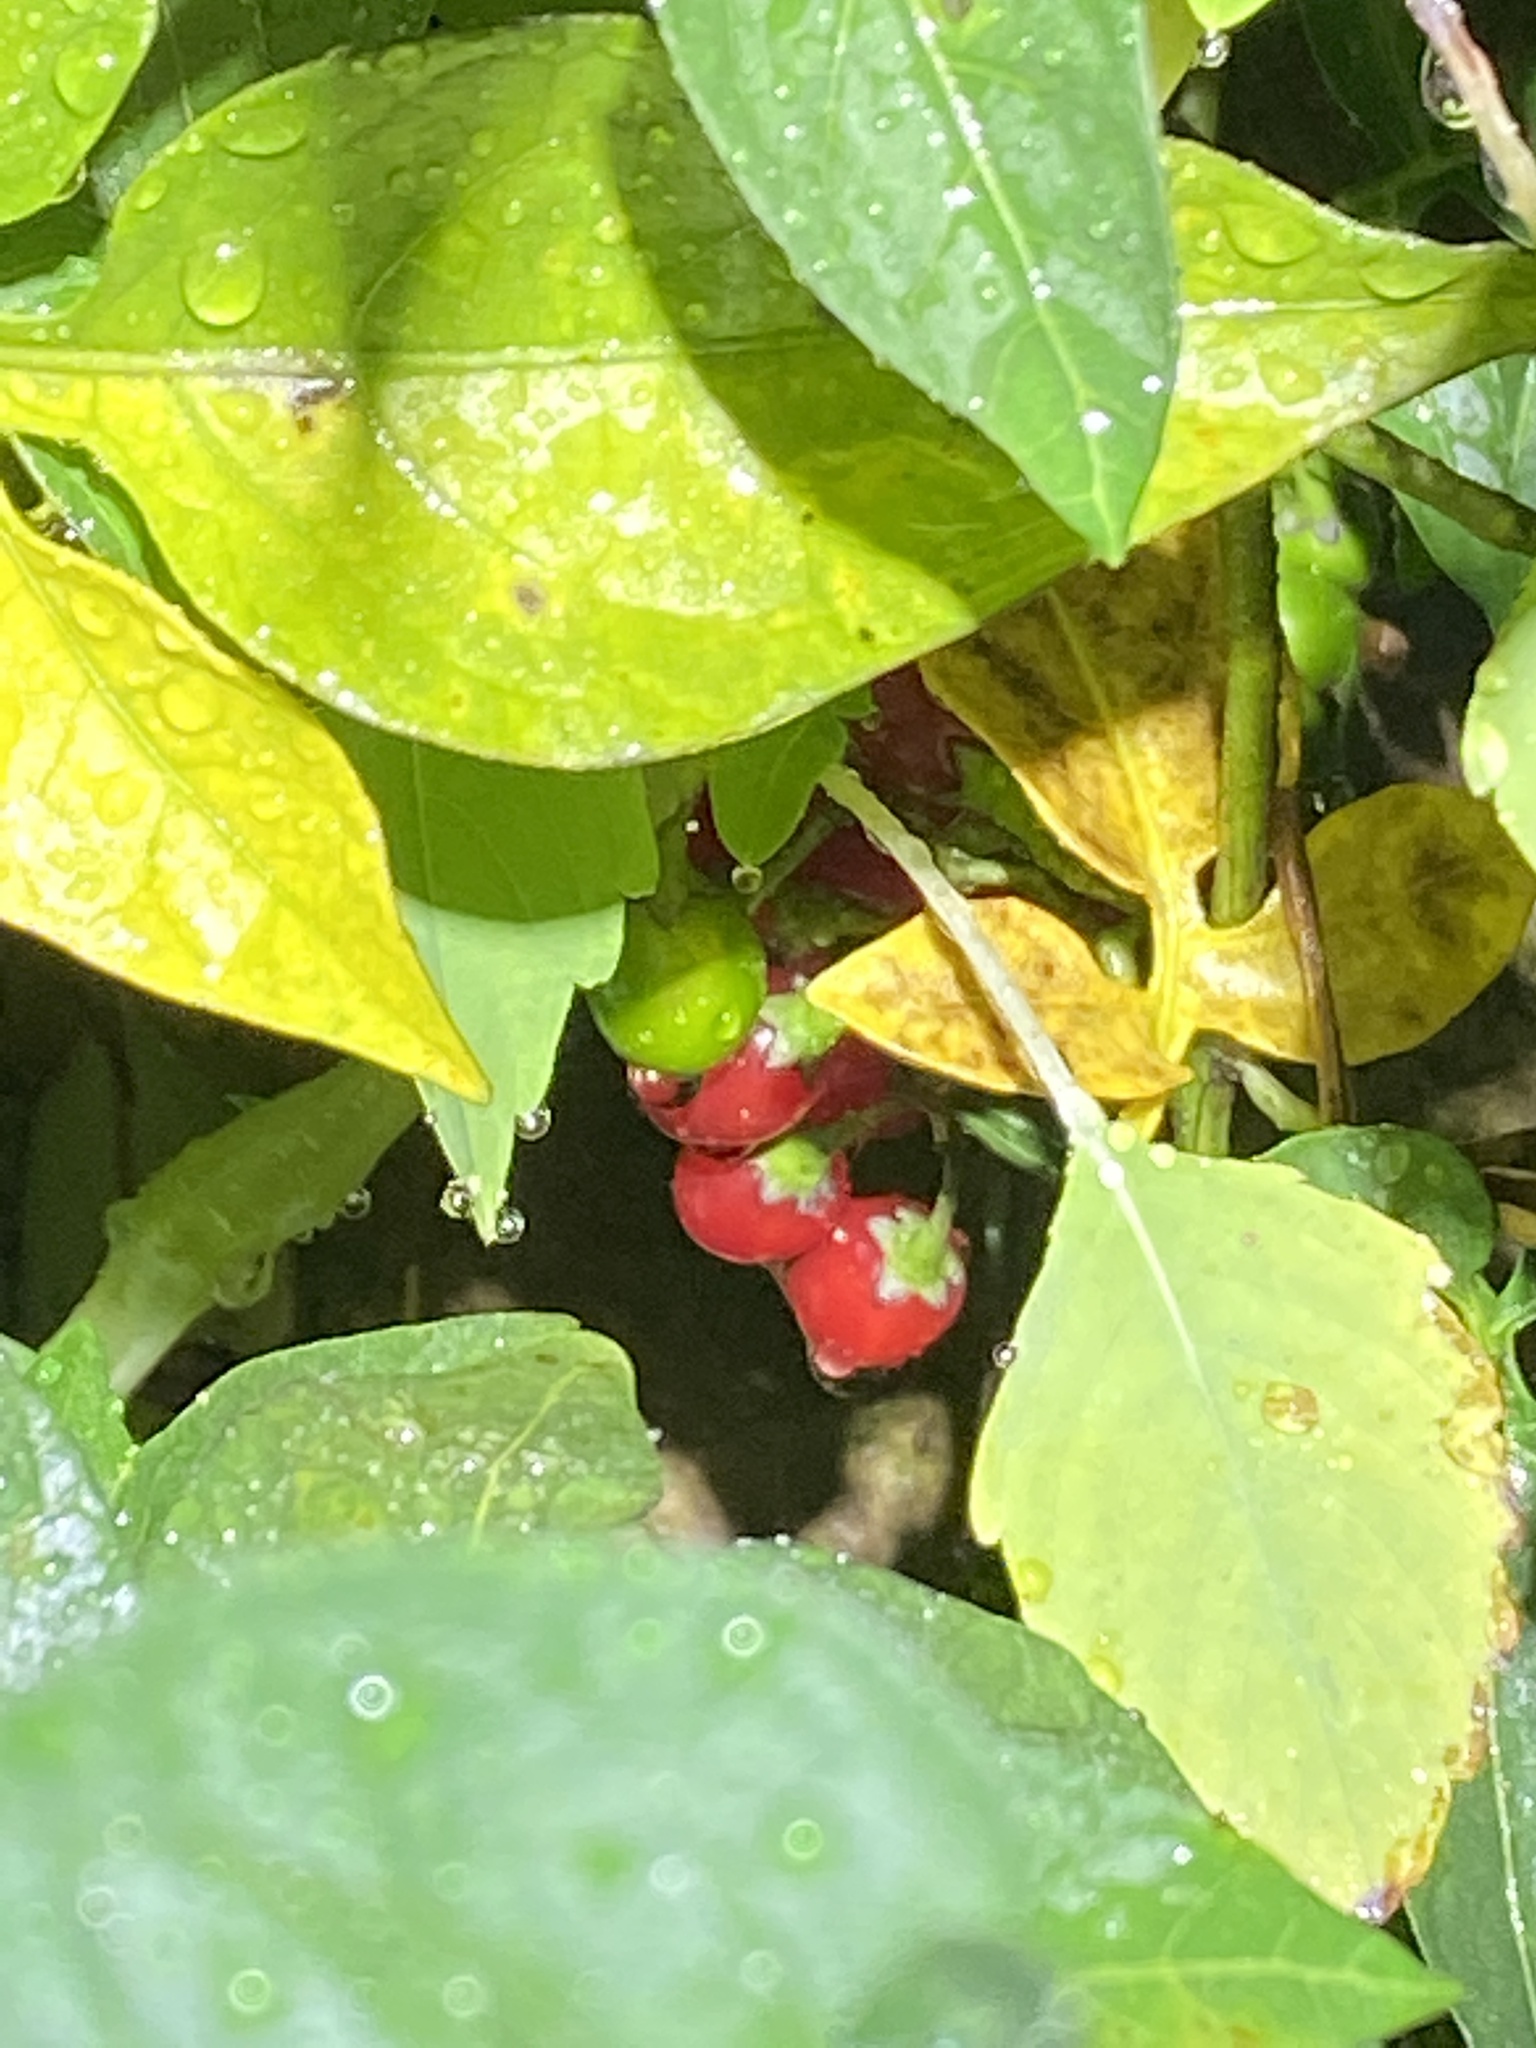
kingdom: Plantae
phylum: Tracheophyta
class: Magnoliopsida
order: Solanales
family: Solanaceae
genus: Solanum
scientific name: Solanum dulcamara
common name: Climbing nightshade
